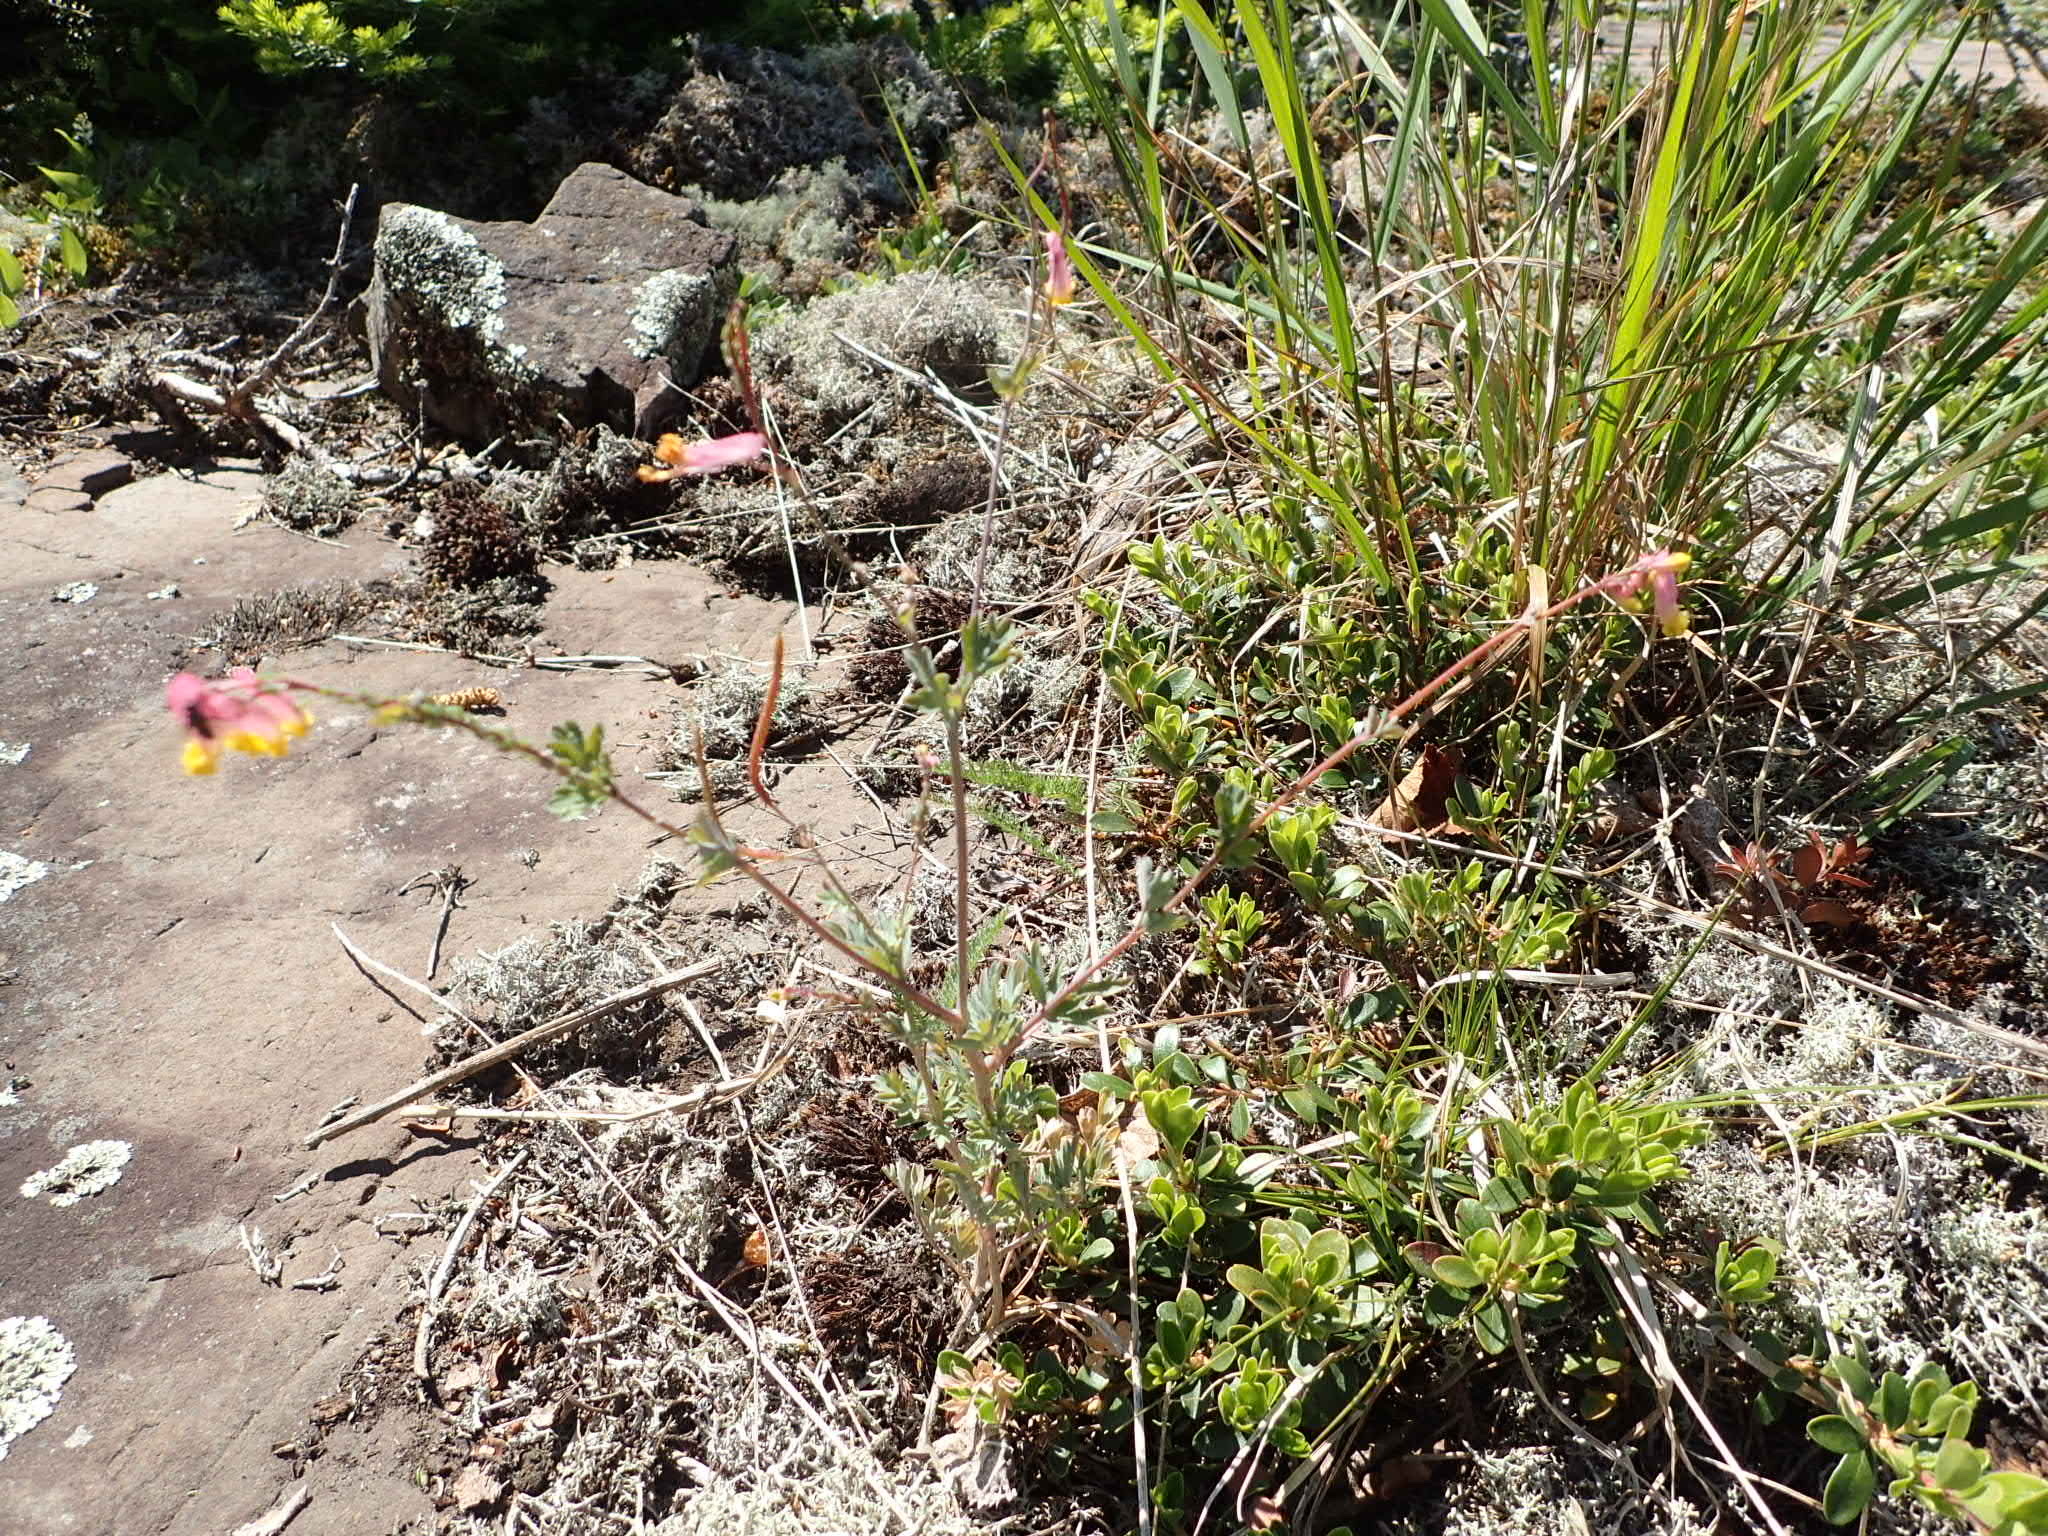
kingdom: Plantae
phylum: Tracheophyta
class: Magnoliopsida
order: Ranunculales
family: Papaveraceae
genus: Capnoides
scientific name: Capnoides sempervirens
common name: Rock harlequin
